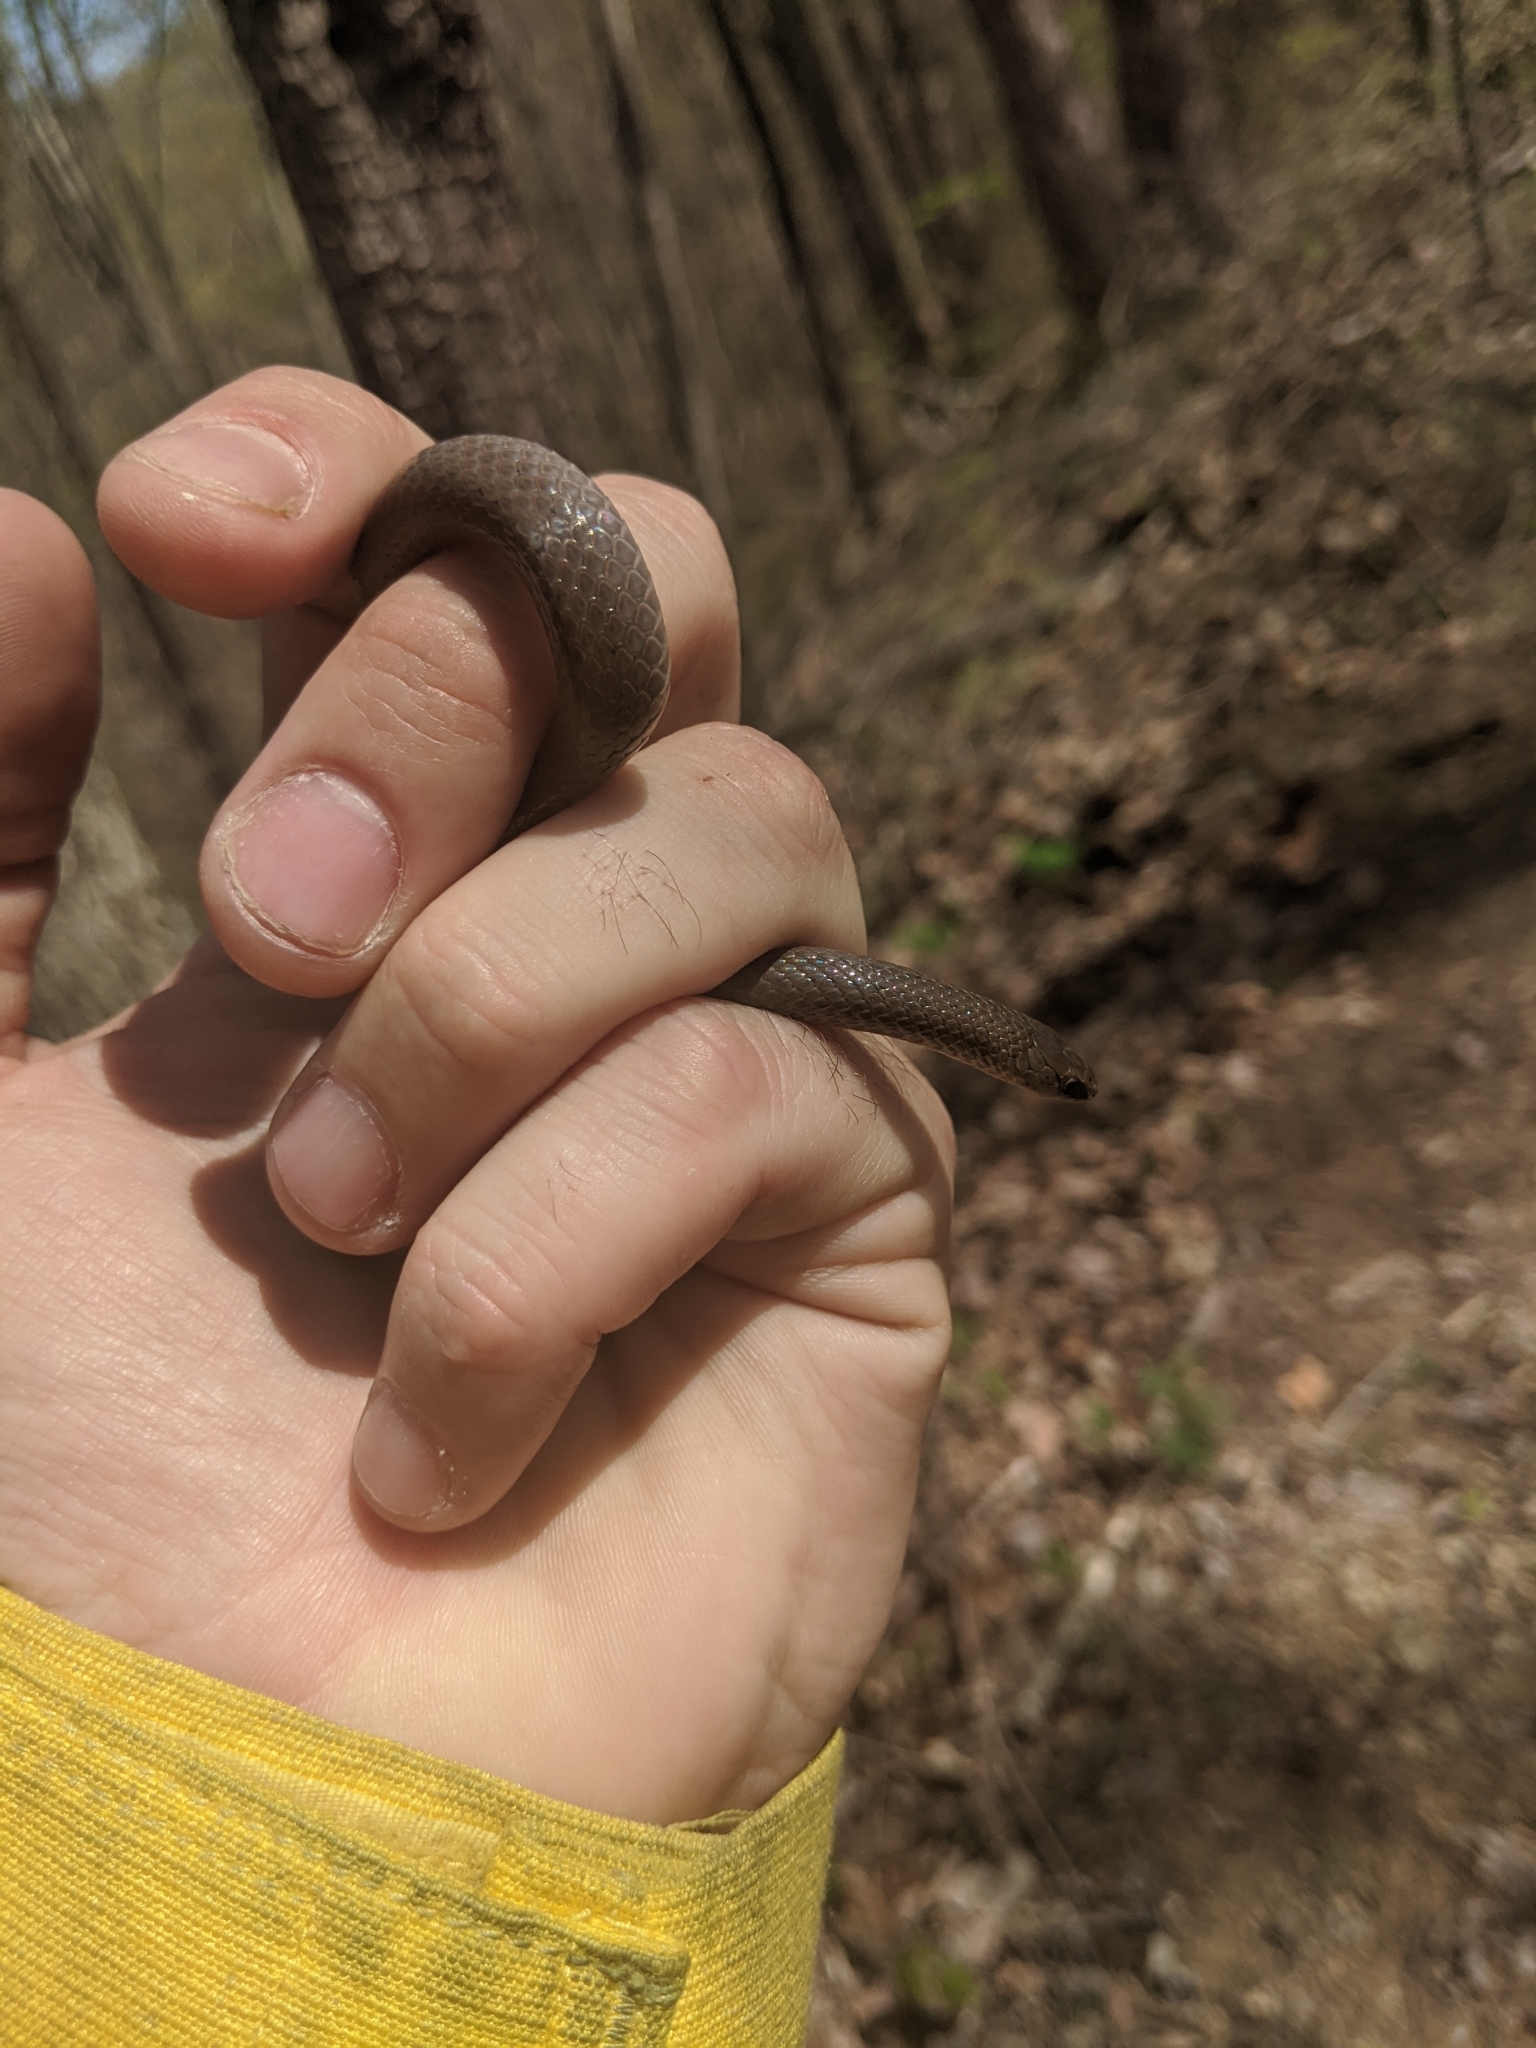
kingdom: Animalia
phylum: Chordata
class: Squamata
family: Colubridae
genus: Virginia
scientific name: Virginia valeriae
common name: Smooth earth snake
